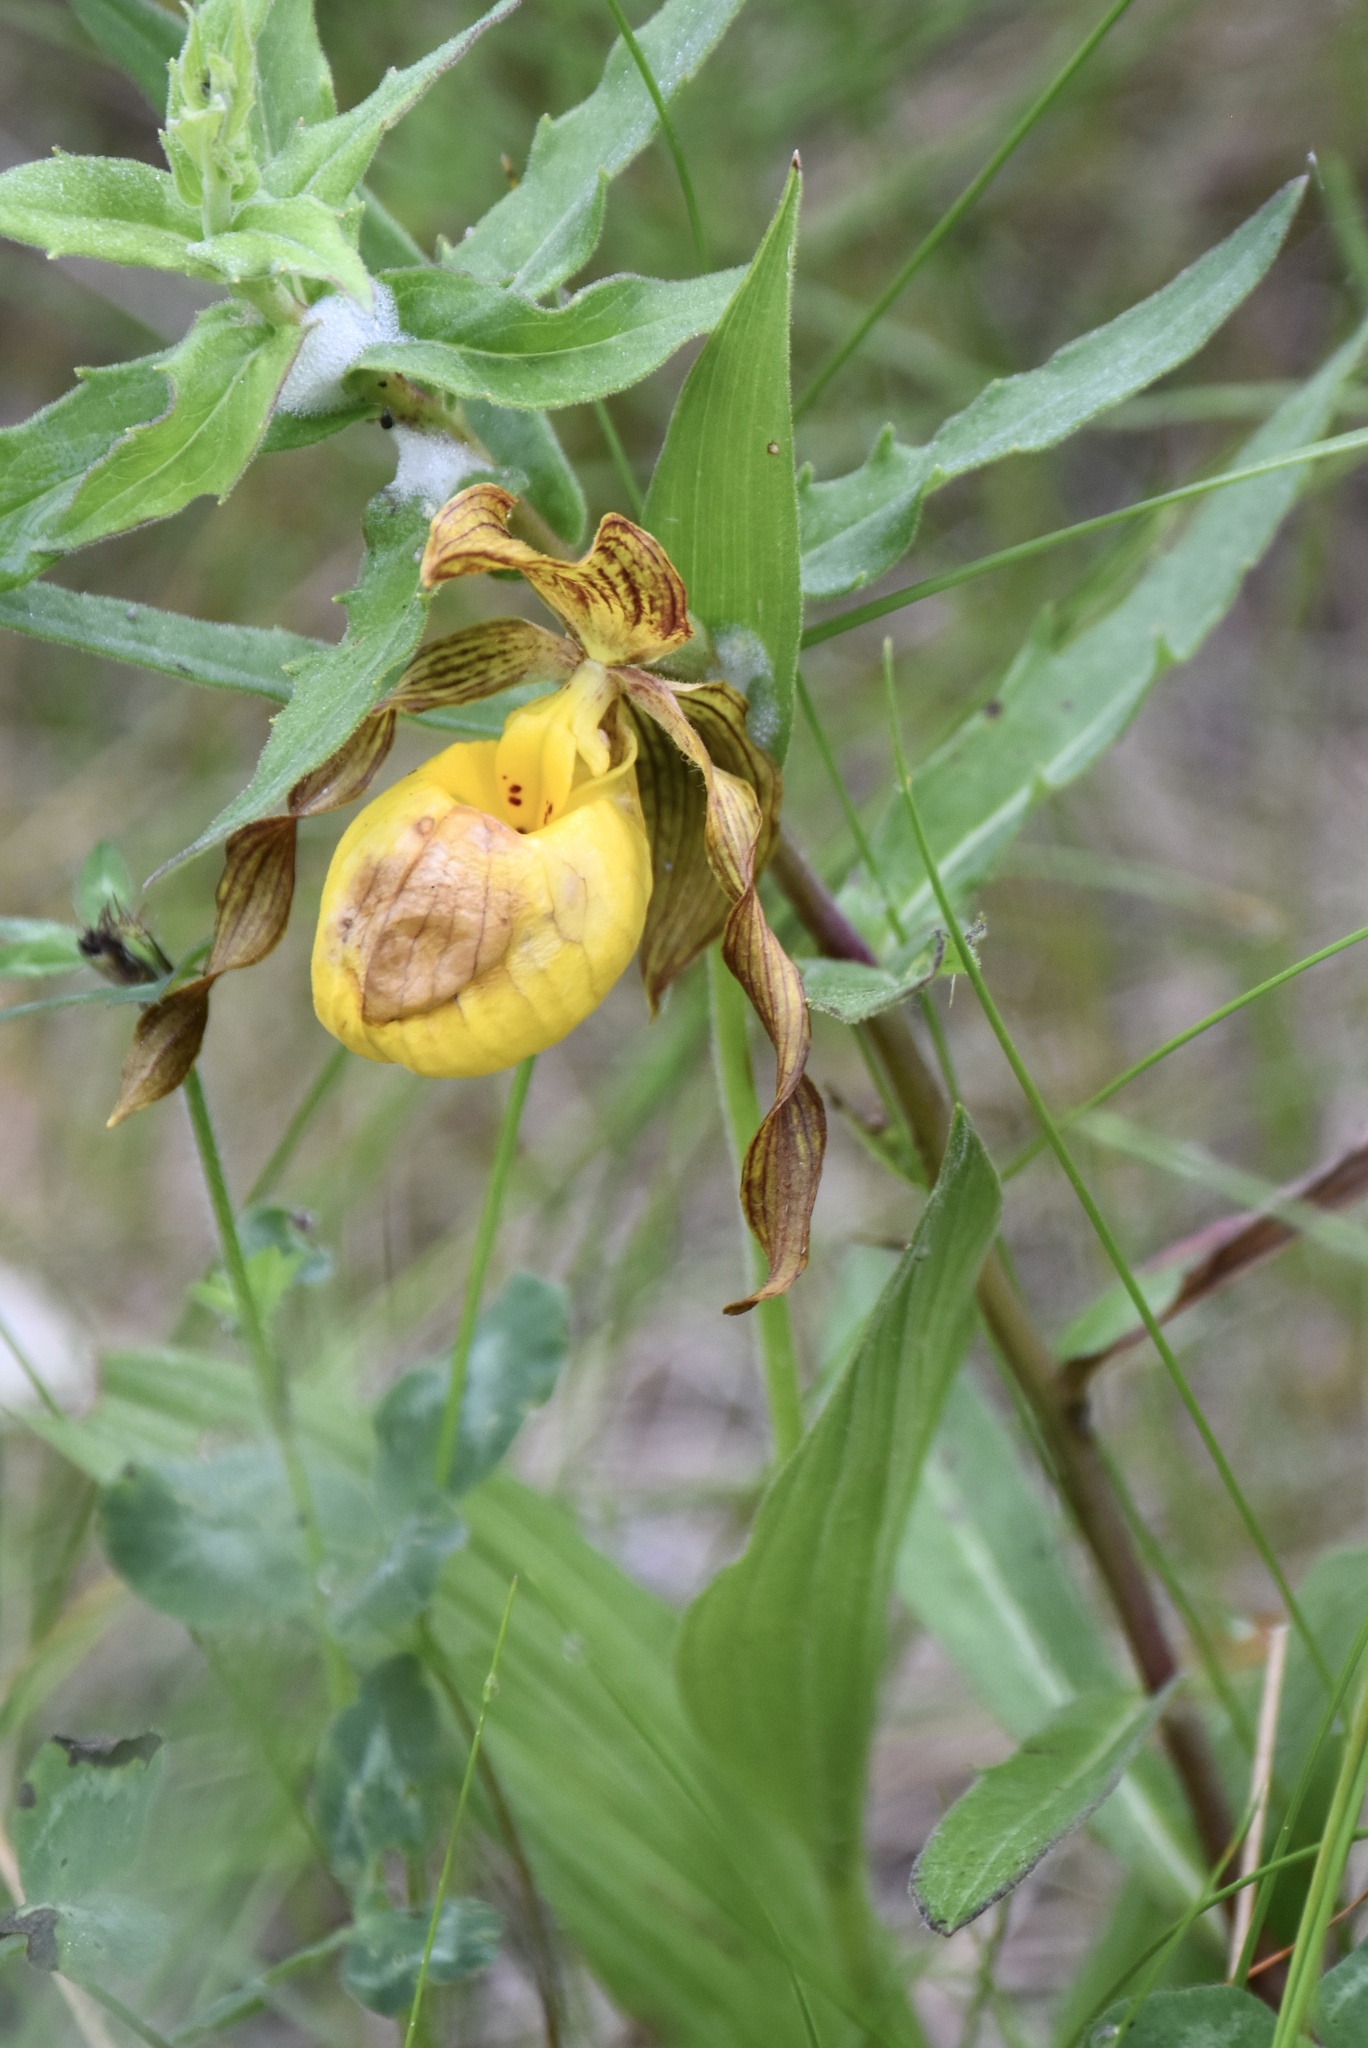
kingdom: Plantae
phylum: Tracheophyta
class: Liliopsida
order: Asparagales
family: Orchidaceae
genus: Cypripedium
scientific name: Cypripedium parviflorum
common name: American yellow lady's-slipper
